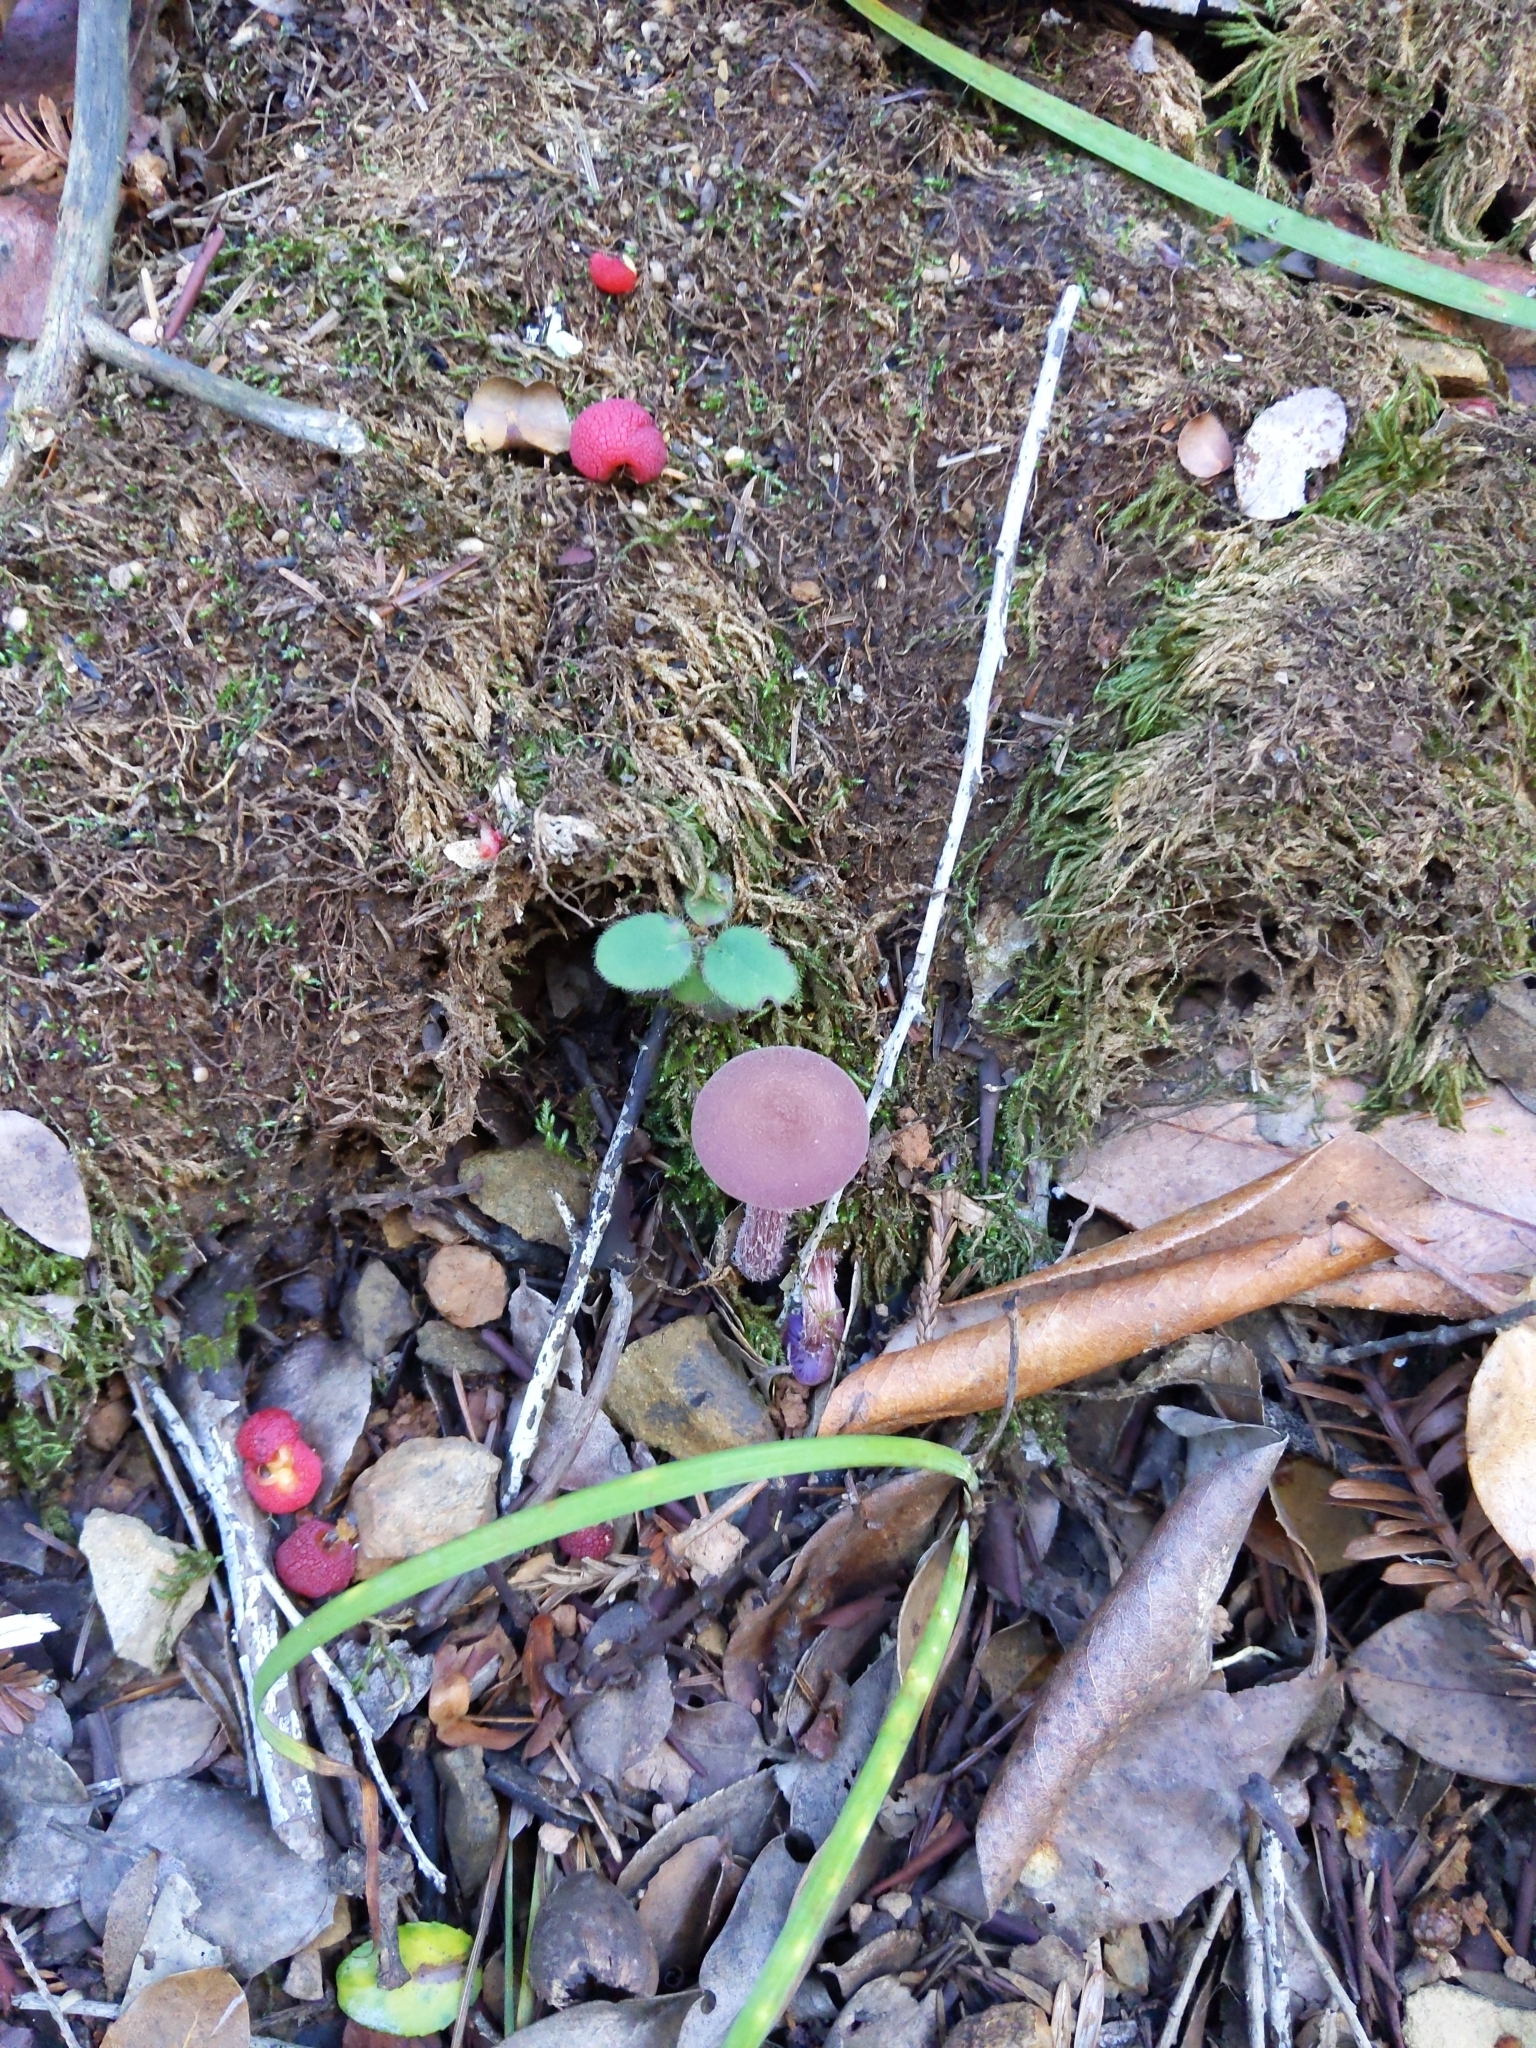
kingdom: Fungi
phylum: Basidiomycota
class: Agaricomycetes
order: Agaricales
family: Hydnangiaceae
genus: Laccaria
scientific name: Laccaria amethysteo-occidentalis
